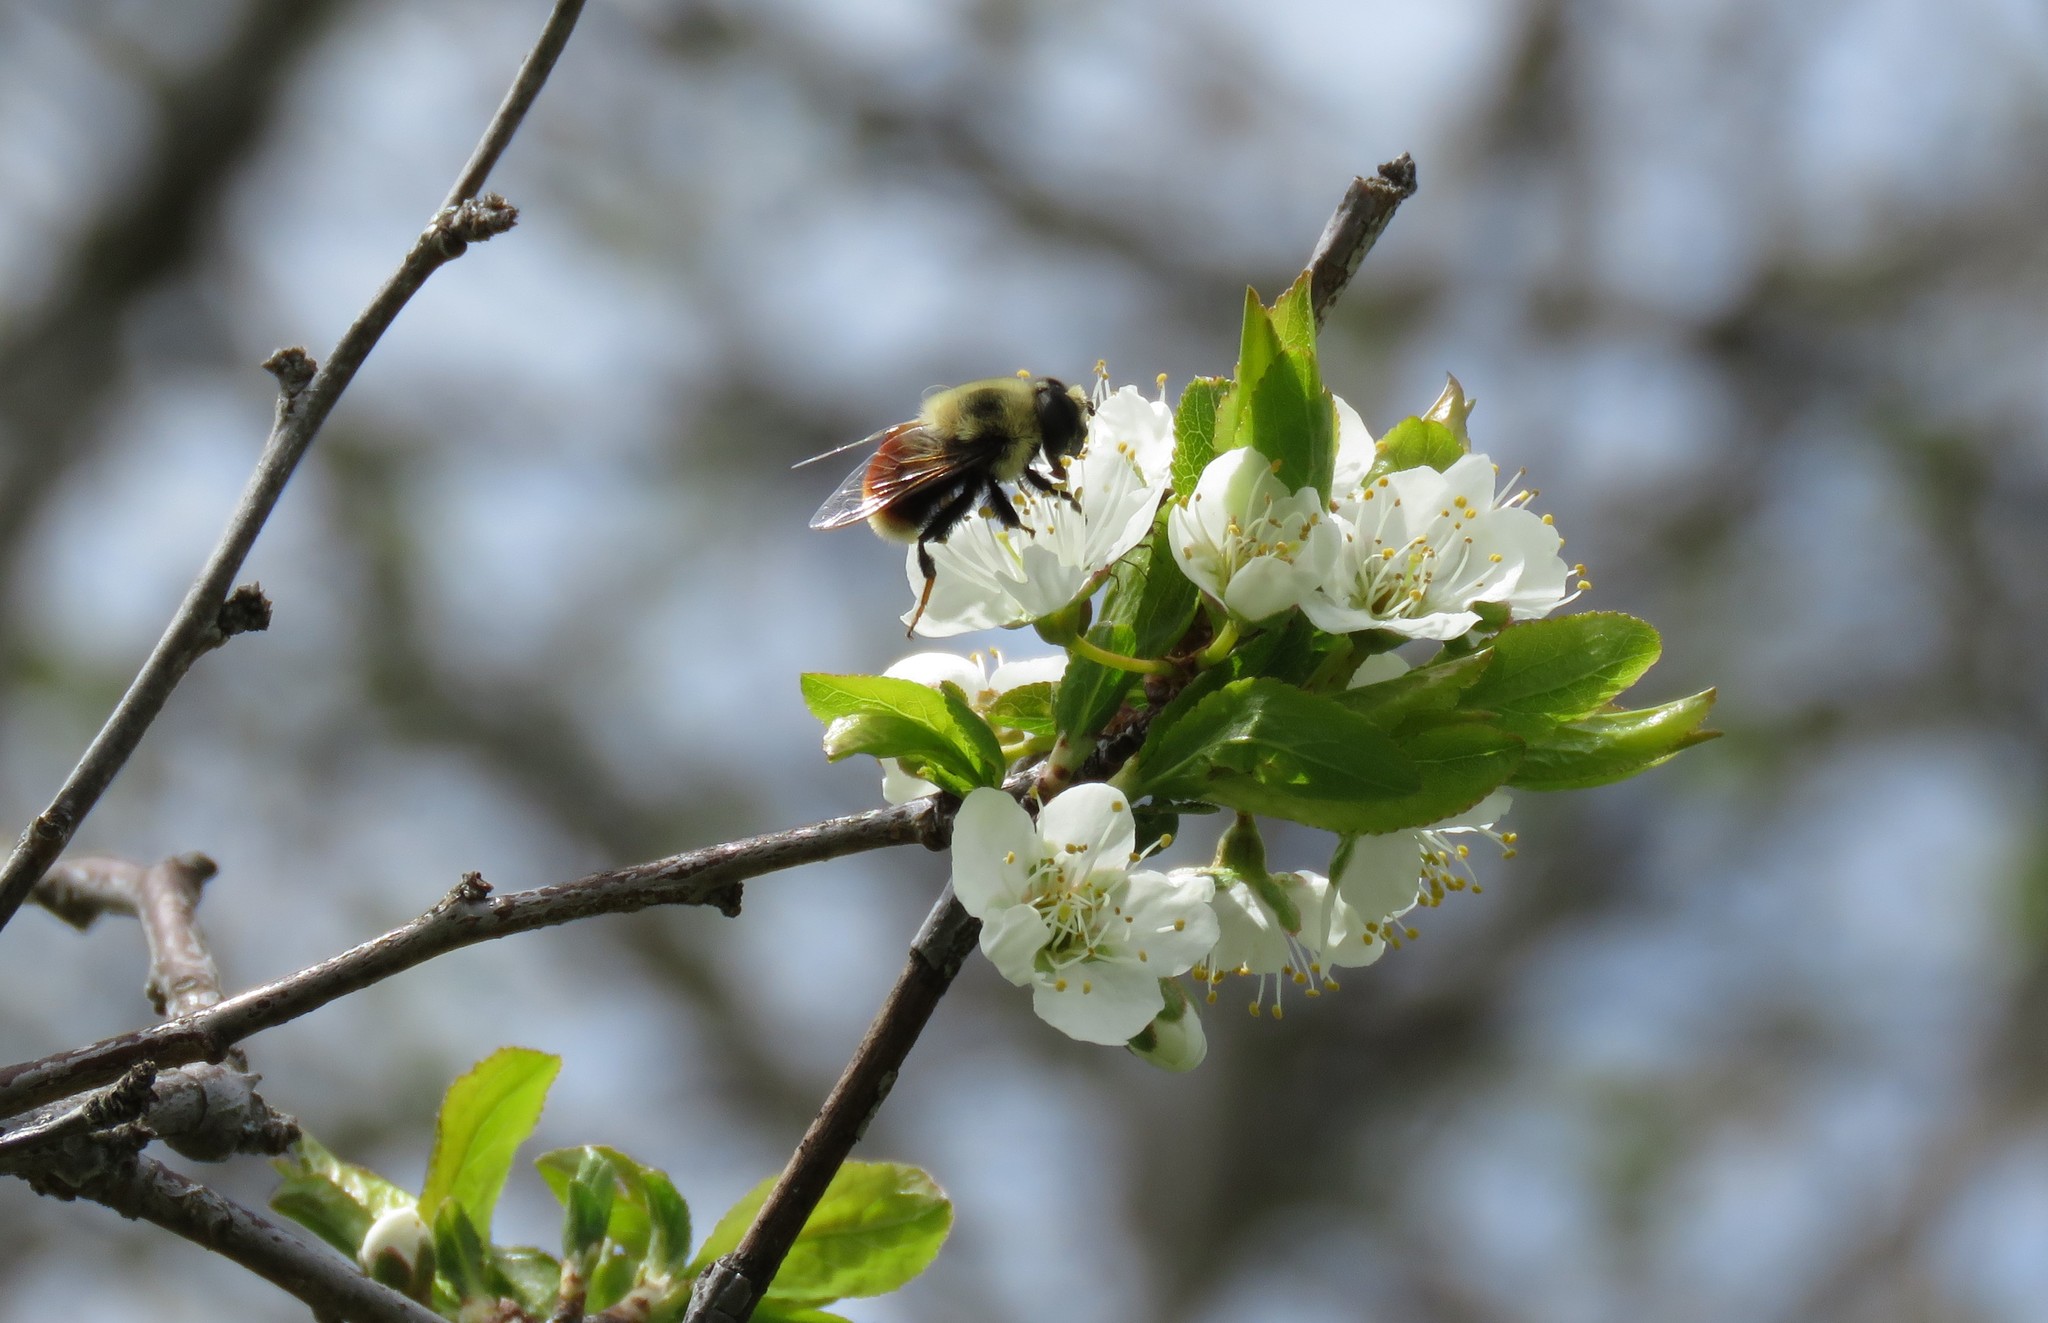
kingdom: Animalia
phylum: Arthropoda
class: Insecta
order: Diptera
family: Syrphidae
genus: Eristalis
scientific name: Eristalis flavipes
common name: Orange-legged drone fly
